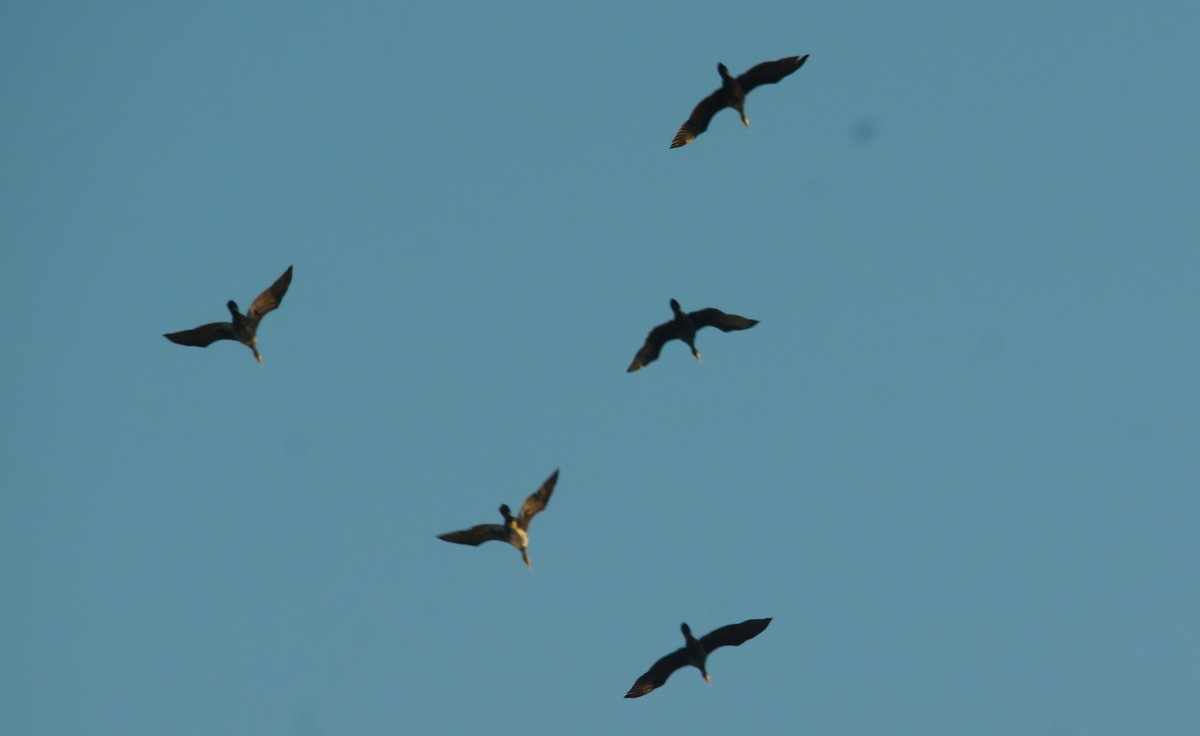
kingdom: Animalia
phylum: Chordata
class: Aves
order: Suliformes
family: Phalacrocoracidae
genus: Phalacrocorax
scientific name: Phalacrocorax carbo
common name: Great cormorant
